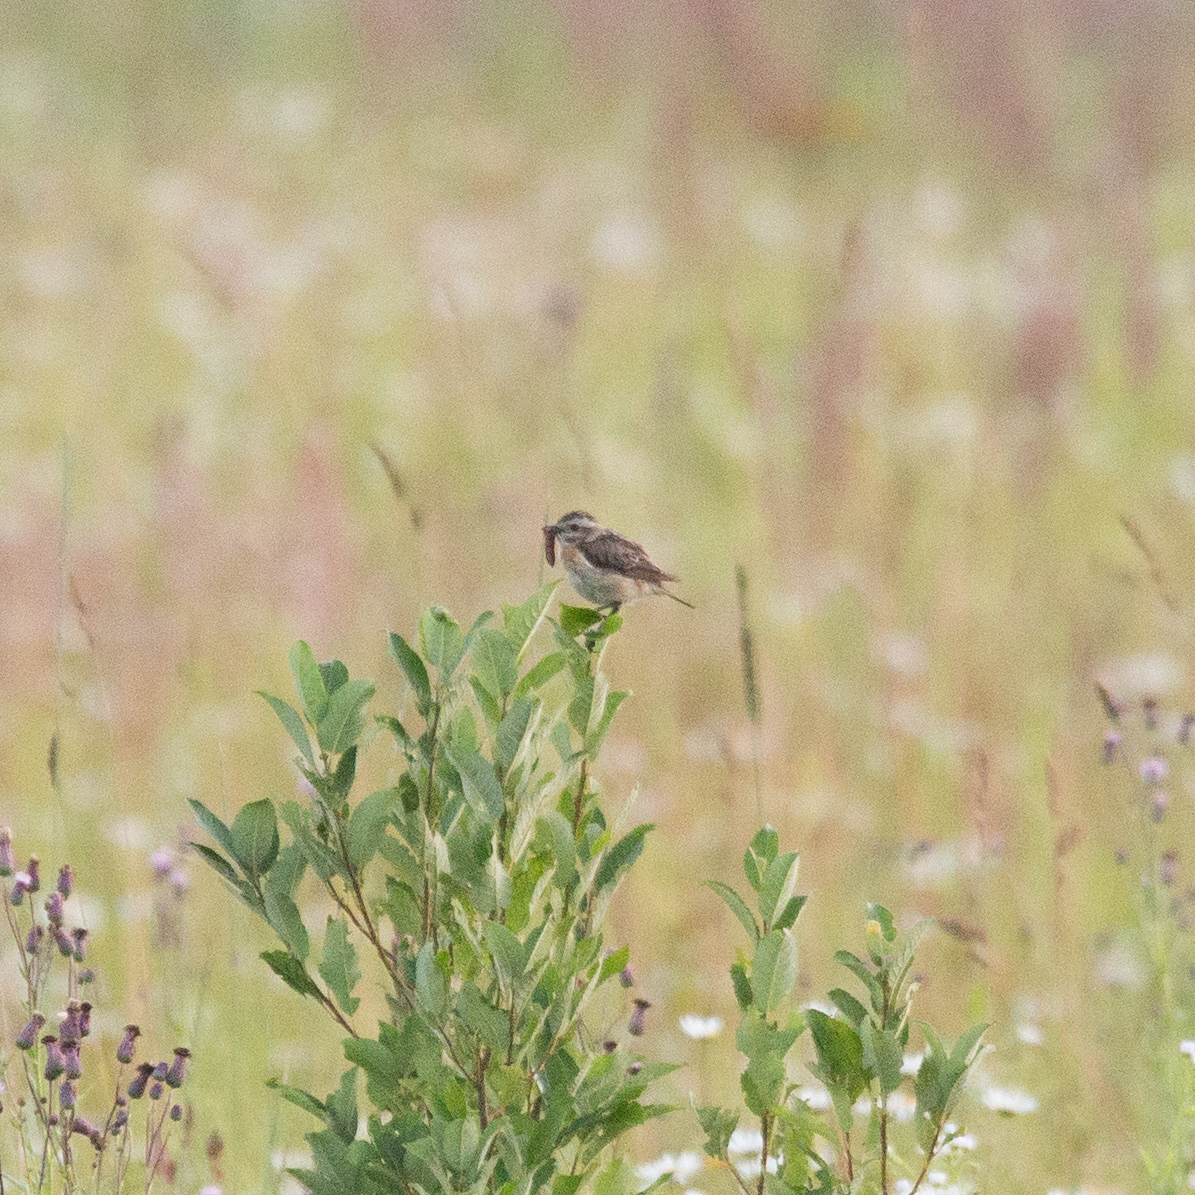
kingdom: Animalia
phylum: Chordata
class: Aves
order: Passeriformes
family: Muscicapidae
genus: Saxicola
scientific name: Saxicola rubetra
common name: Whinchat
